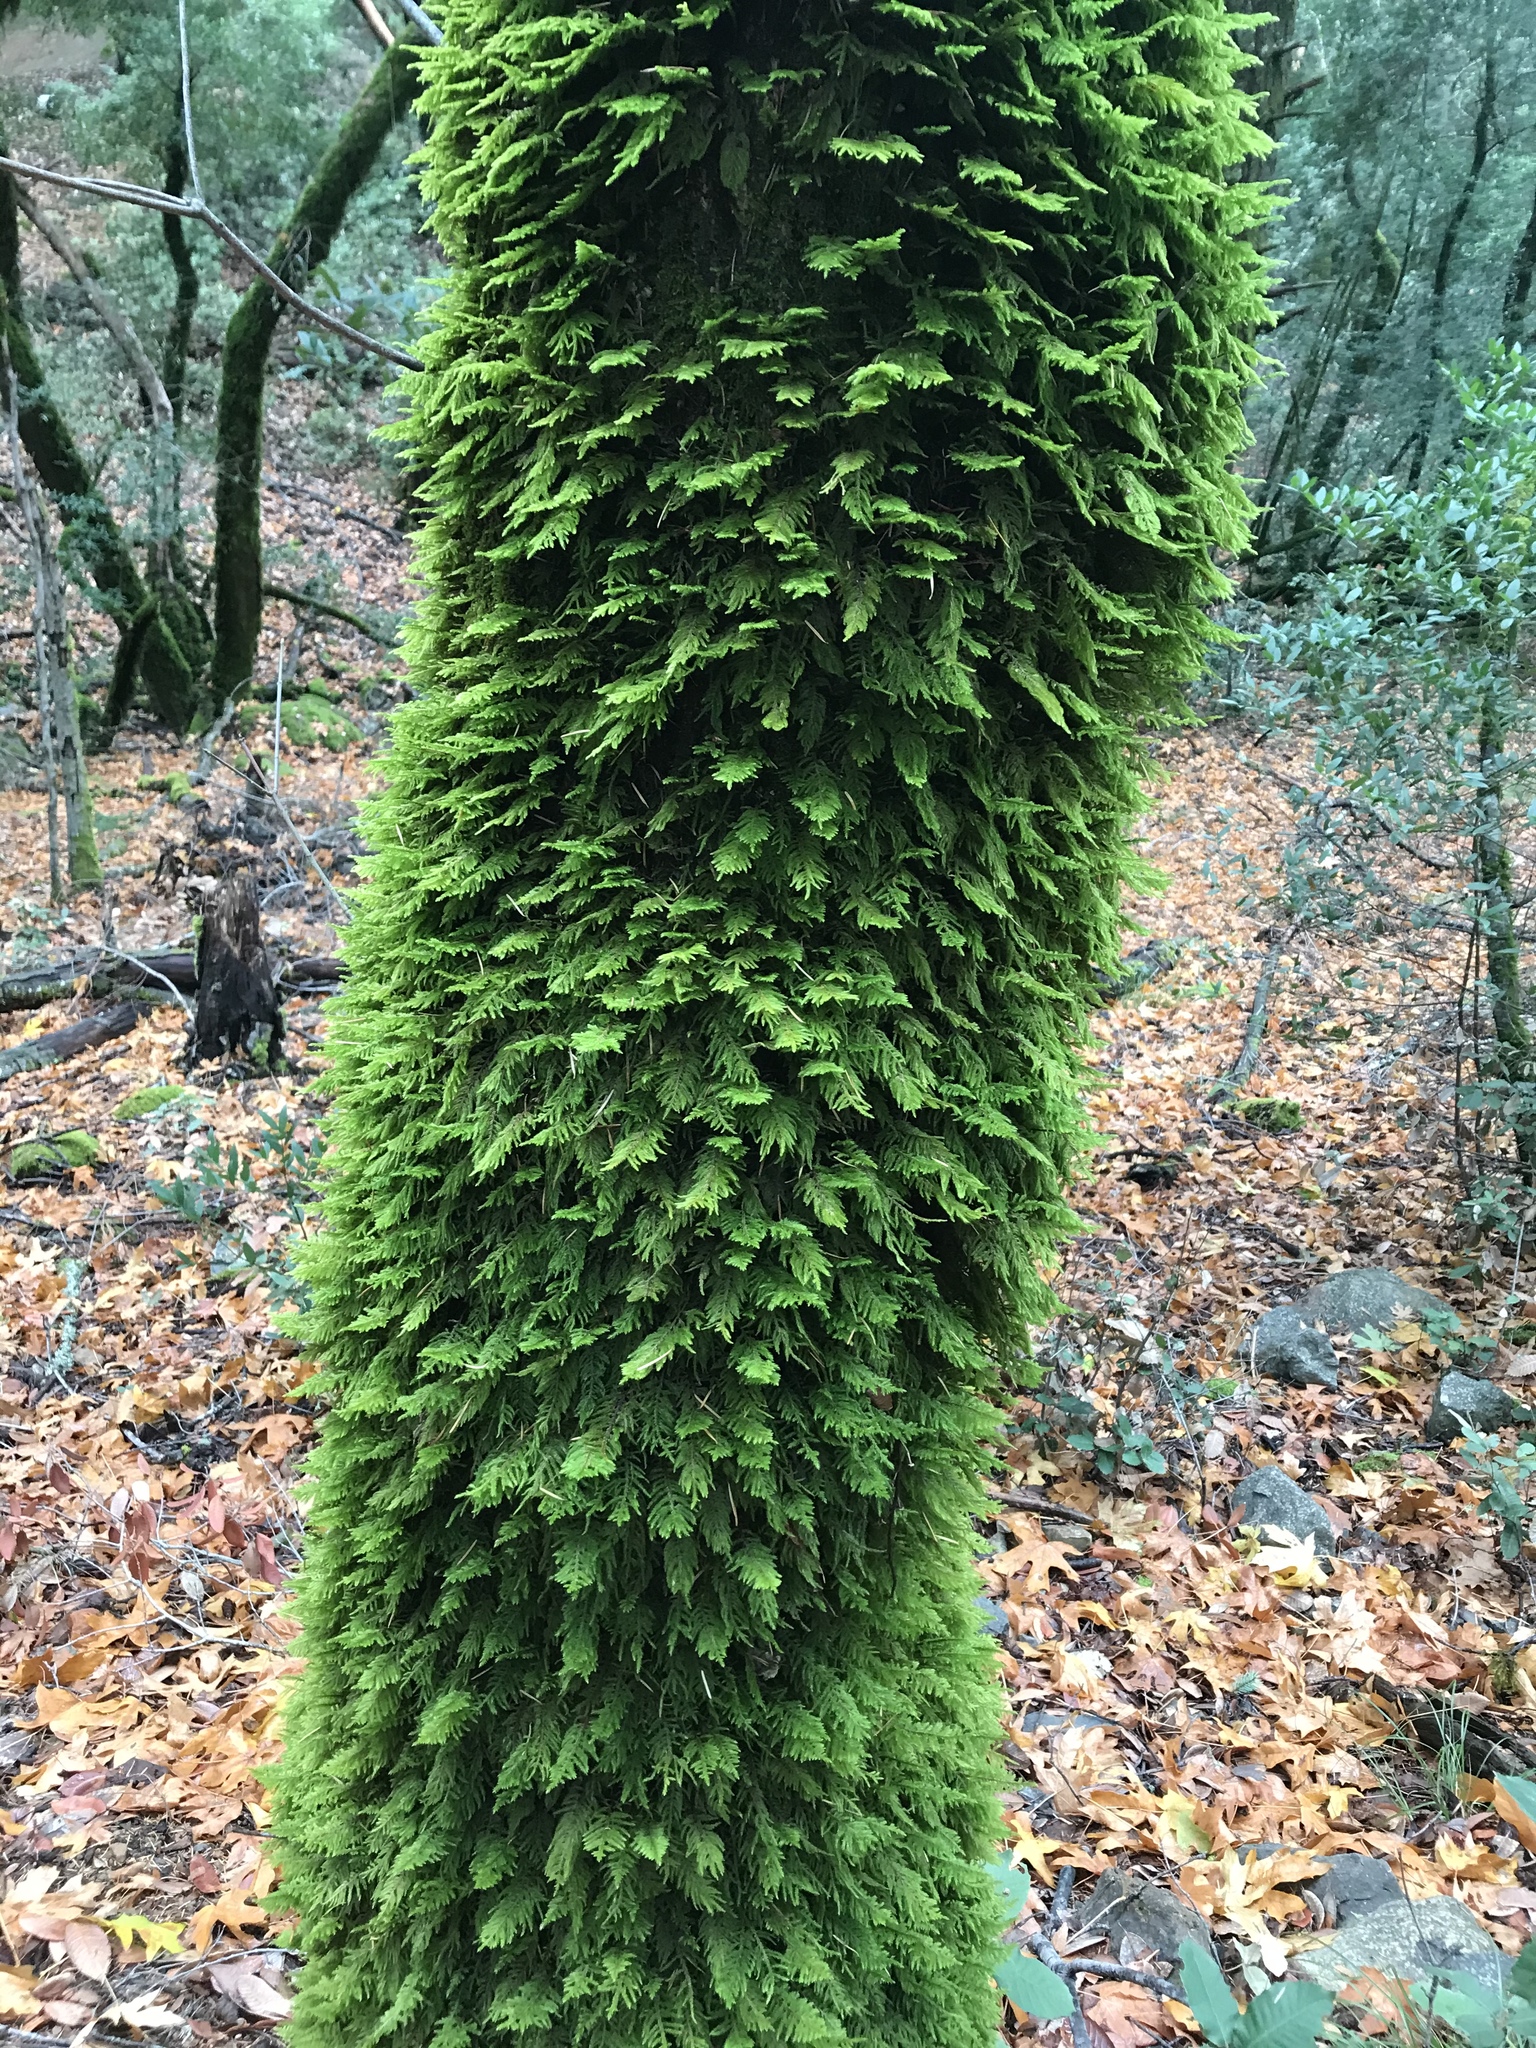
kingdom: Plantae
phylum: Bryophyta
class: Bryopsida
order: Hypnales
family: Cryphaeaceae
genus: Dendroalsia
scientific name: Dendroalsia abietina
